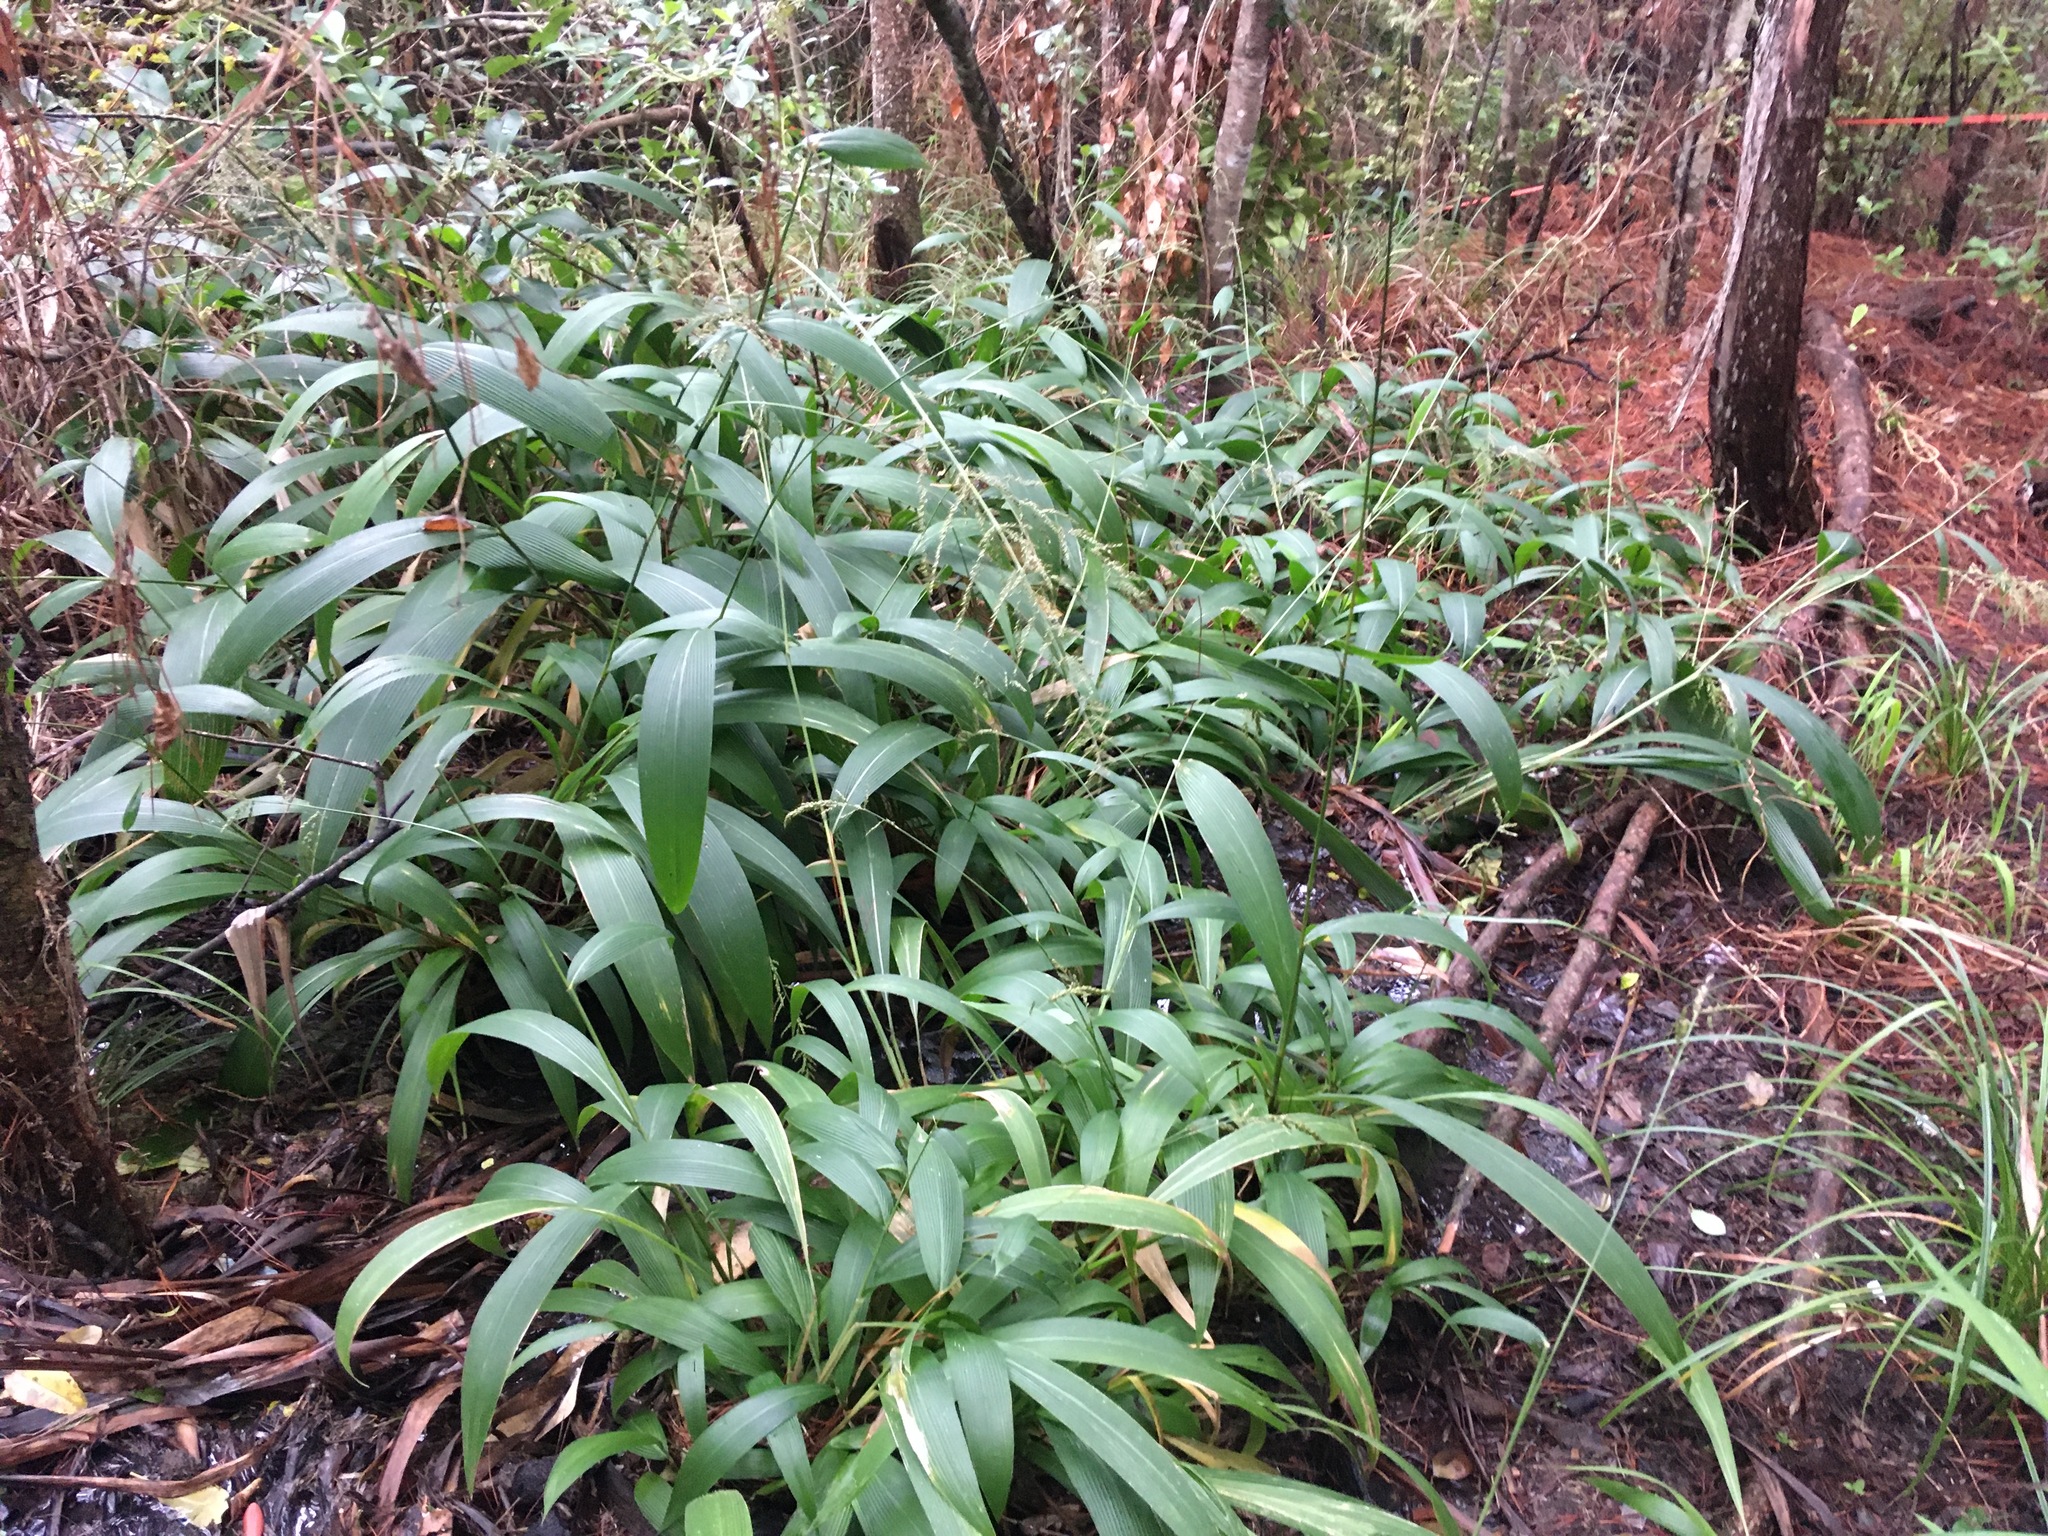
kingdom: Plantae
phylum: Tracheophyta
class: Liliopsida
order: Poales
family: Poaceae
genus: Setaria
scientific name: Setaria palmifolia
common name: Broadleaved bristlegrass
